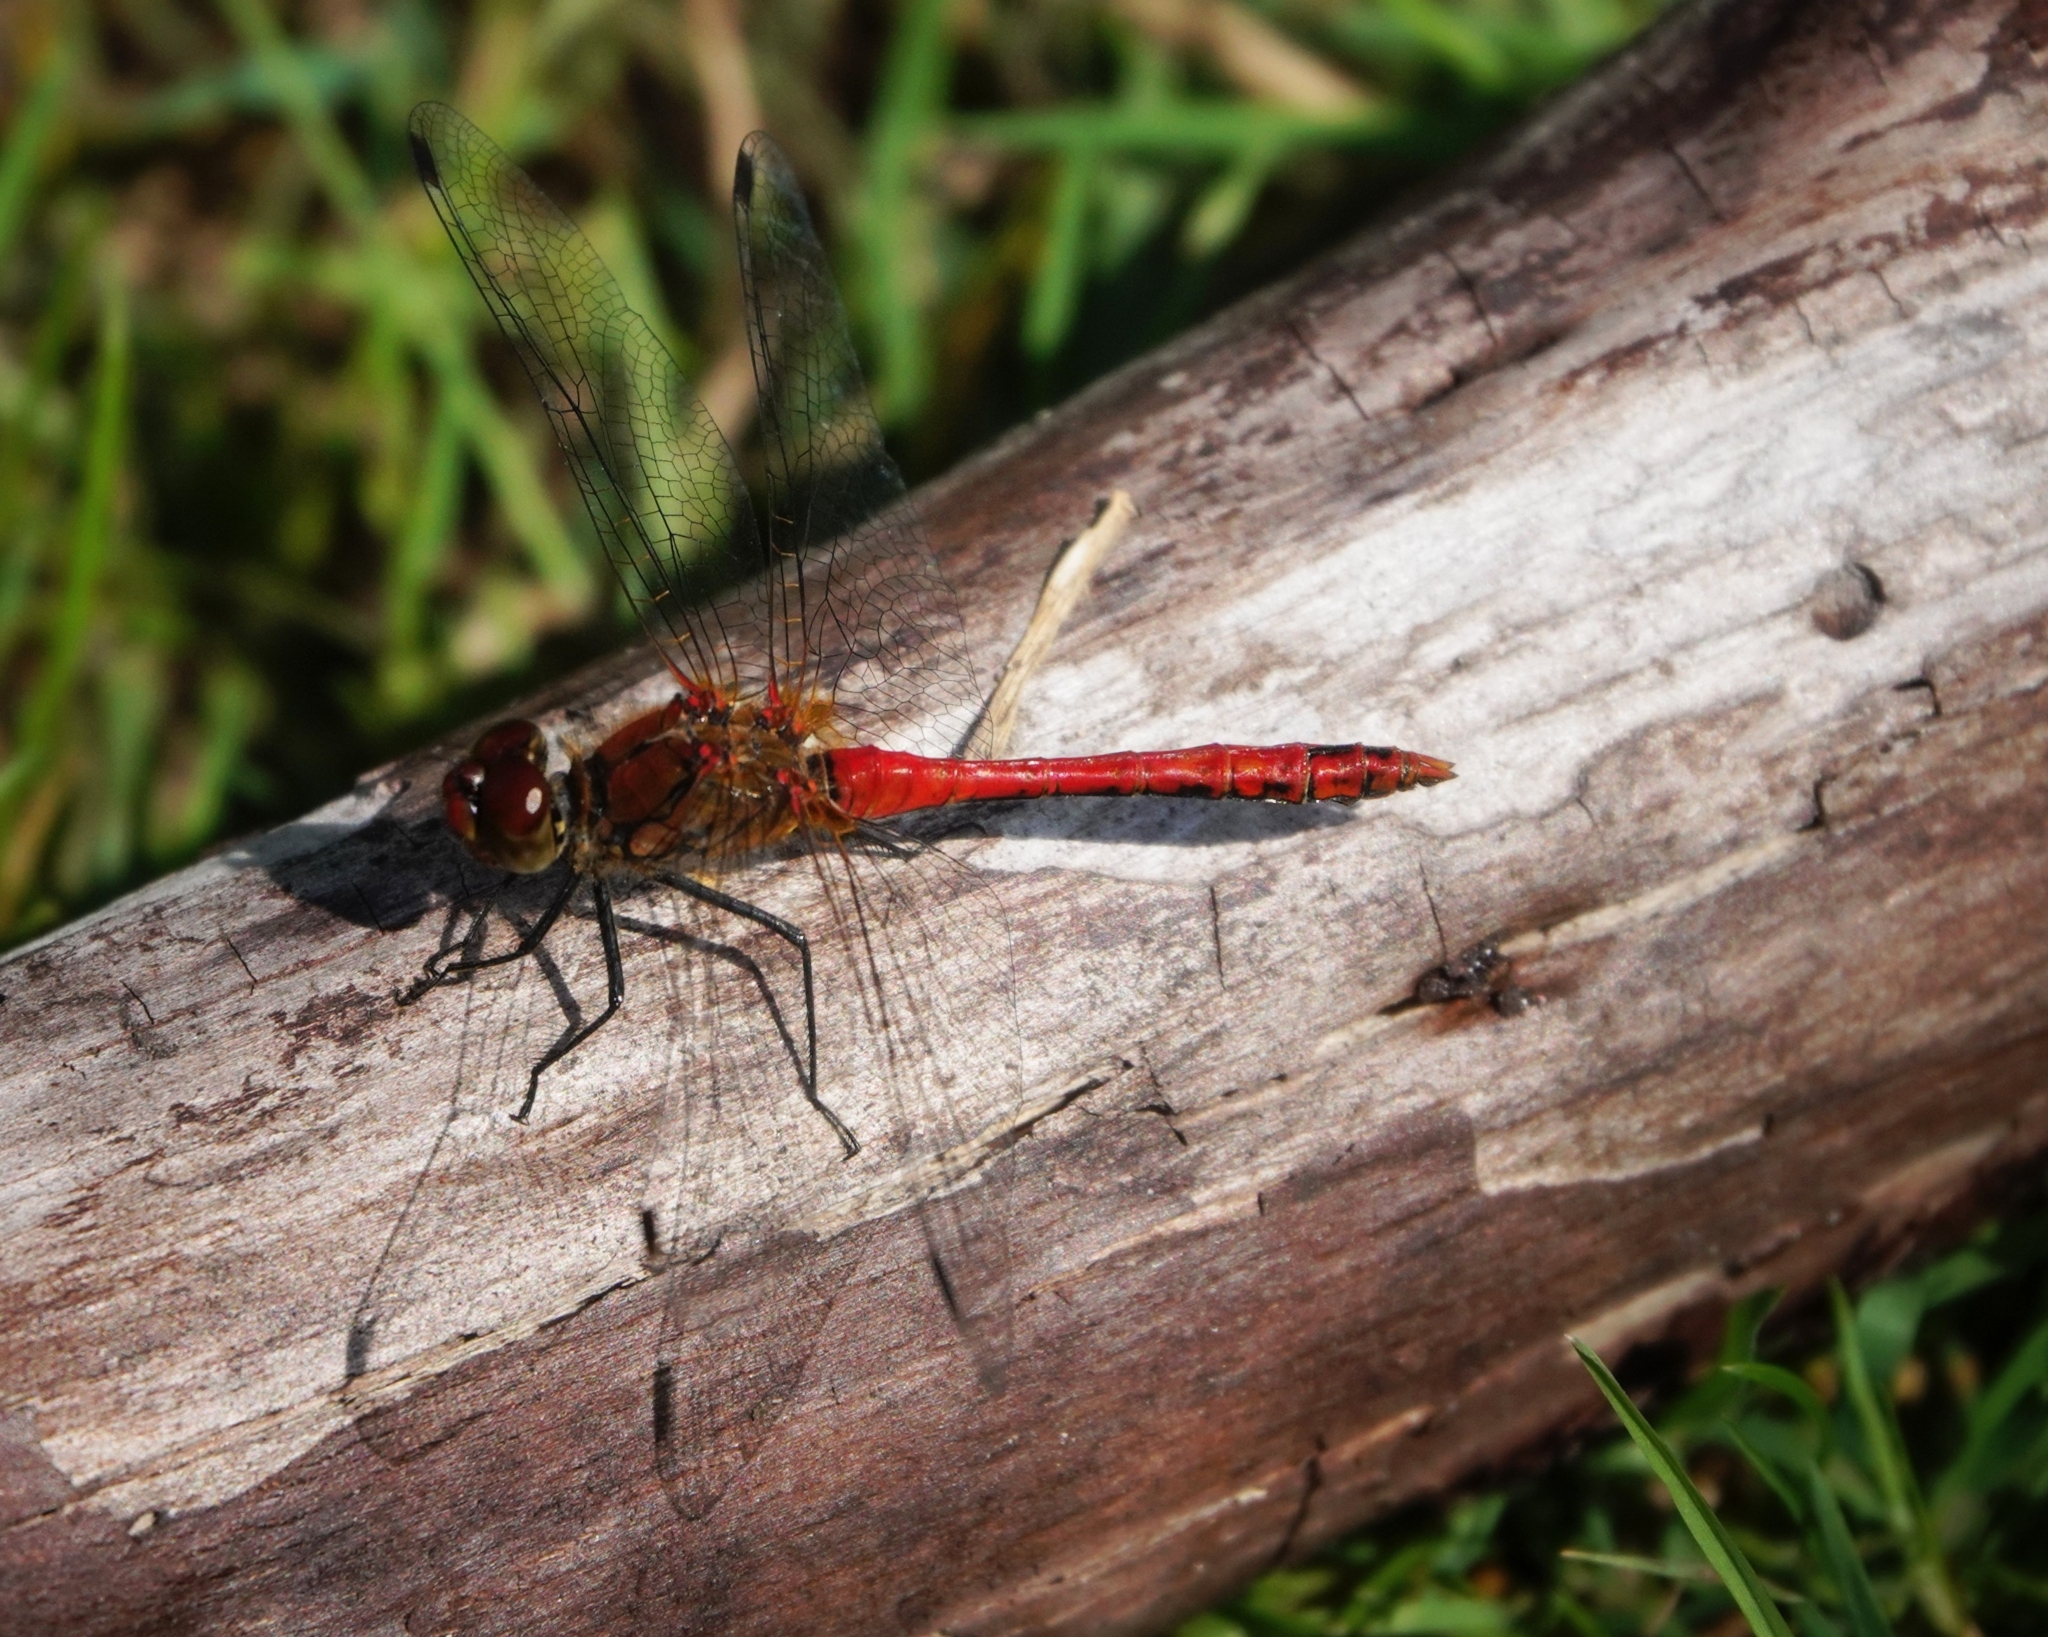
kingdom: Animalia
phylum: Arthropoda
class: Insecta
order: Odonata
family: Libellulidae
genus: Sympetrum
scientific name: Sympetrum sanguineum
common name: Ruddy darter
